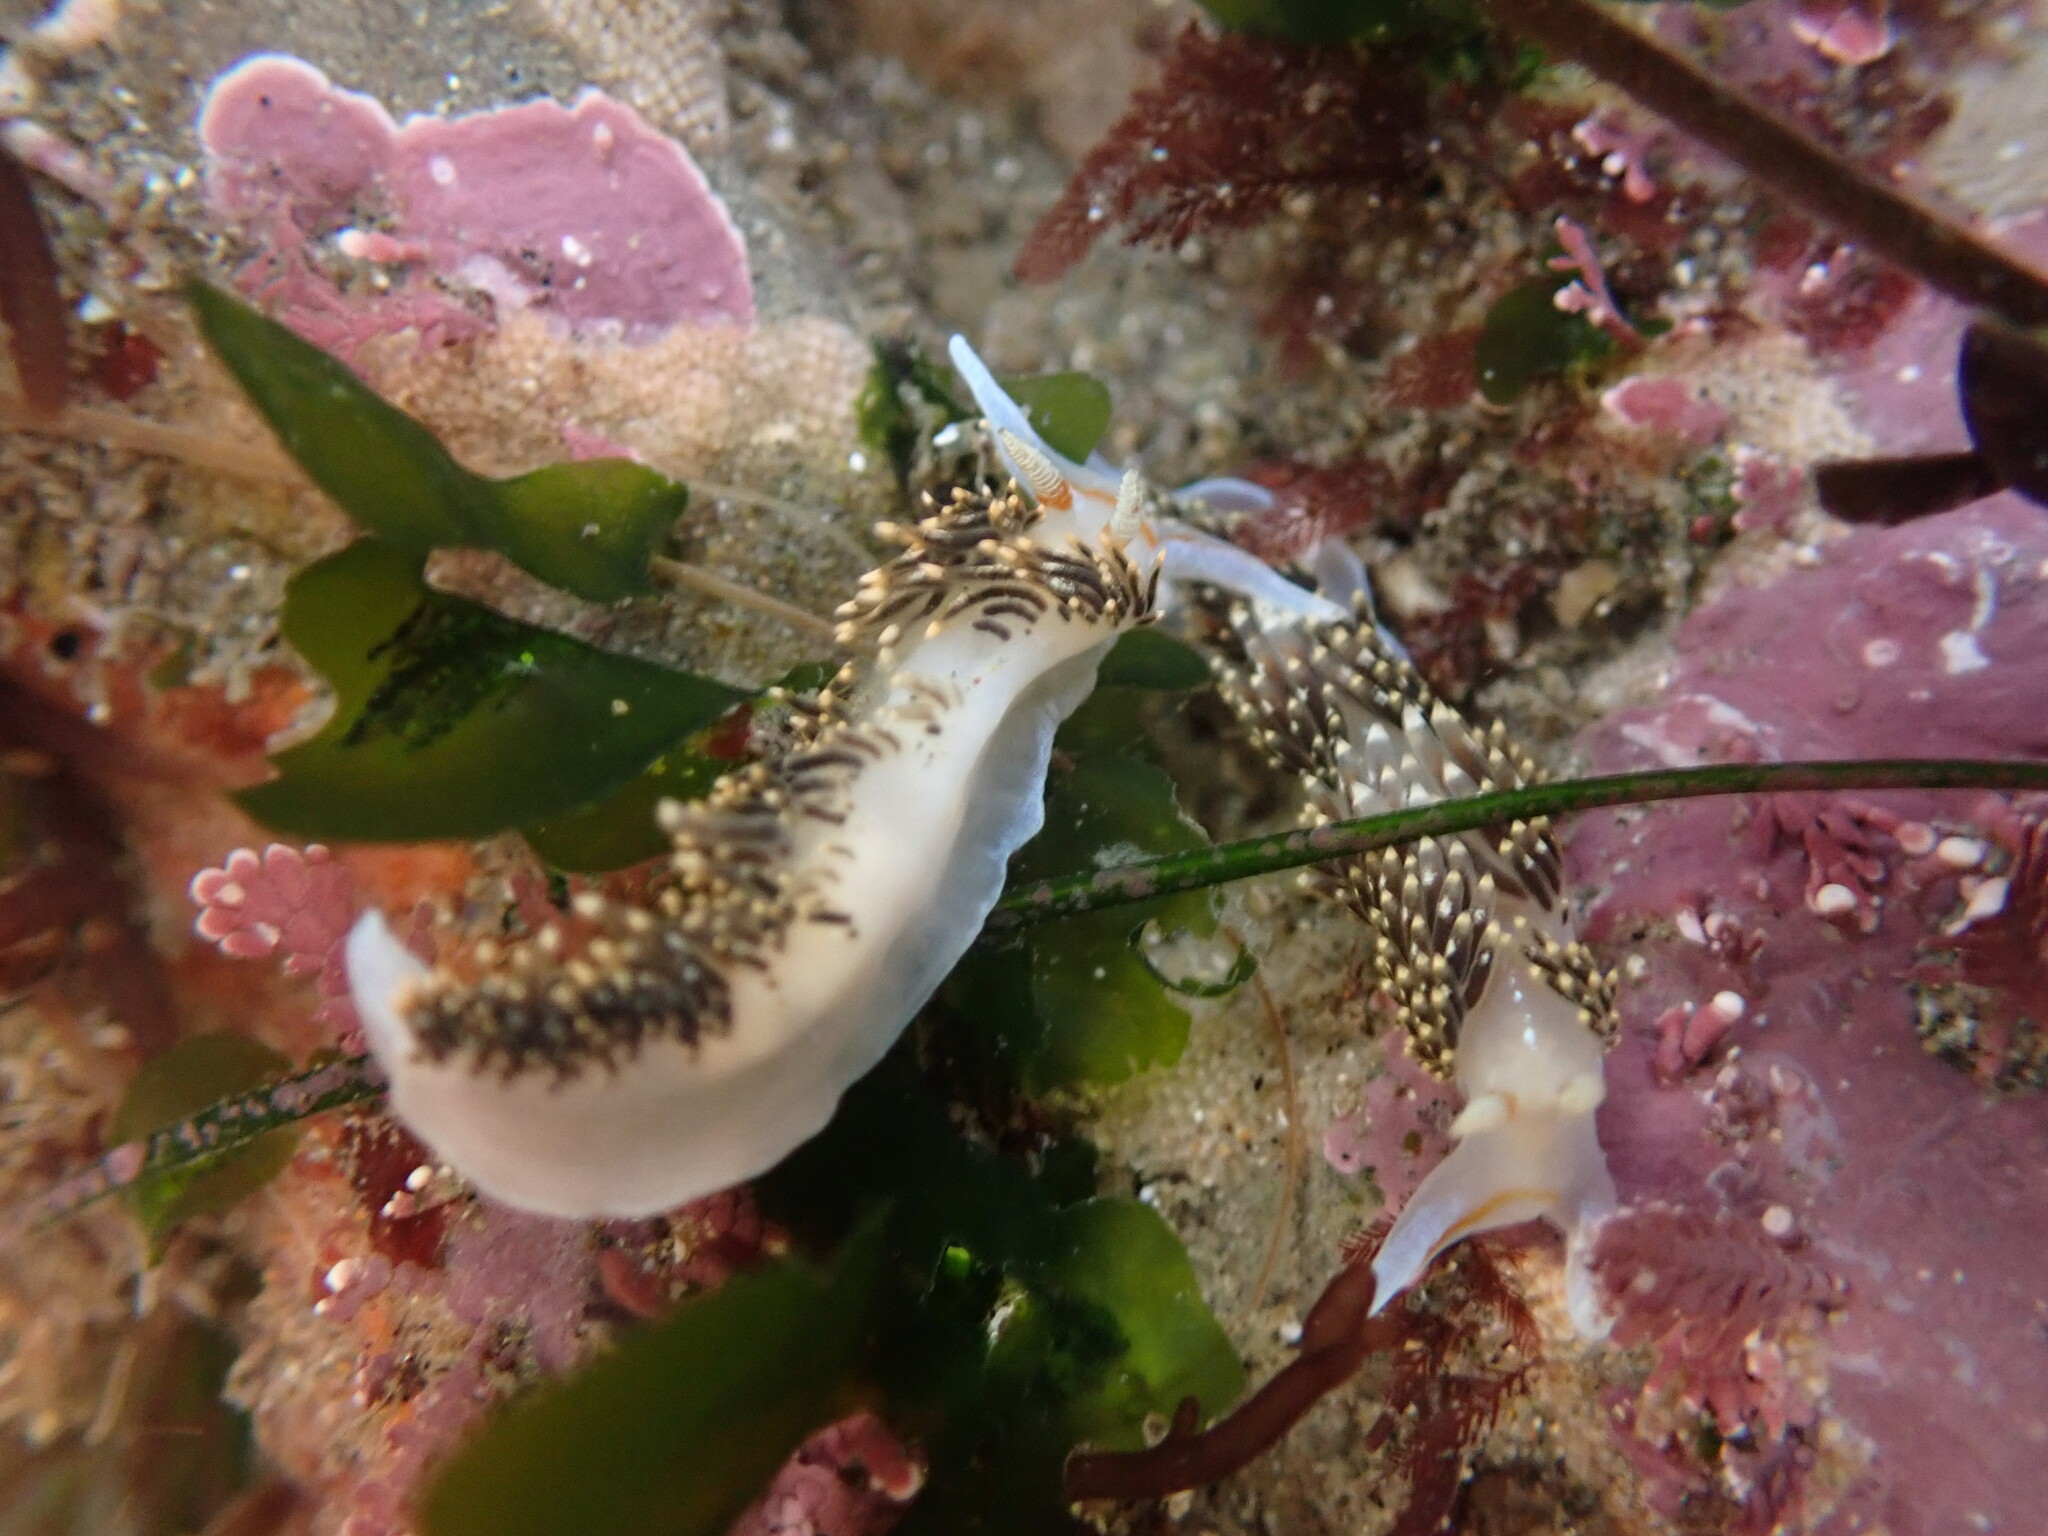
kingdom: Animalia
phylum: Mollusca
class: Gastropoda
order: Nudibranchia
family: Facelinidae
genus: Phidiana
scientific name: Phidiana hiltoni
